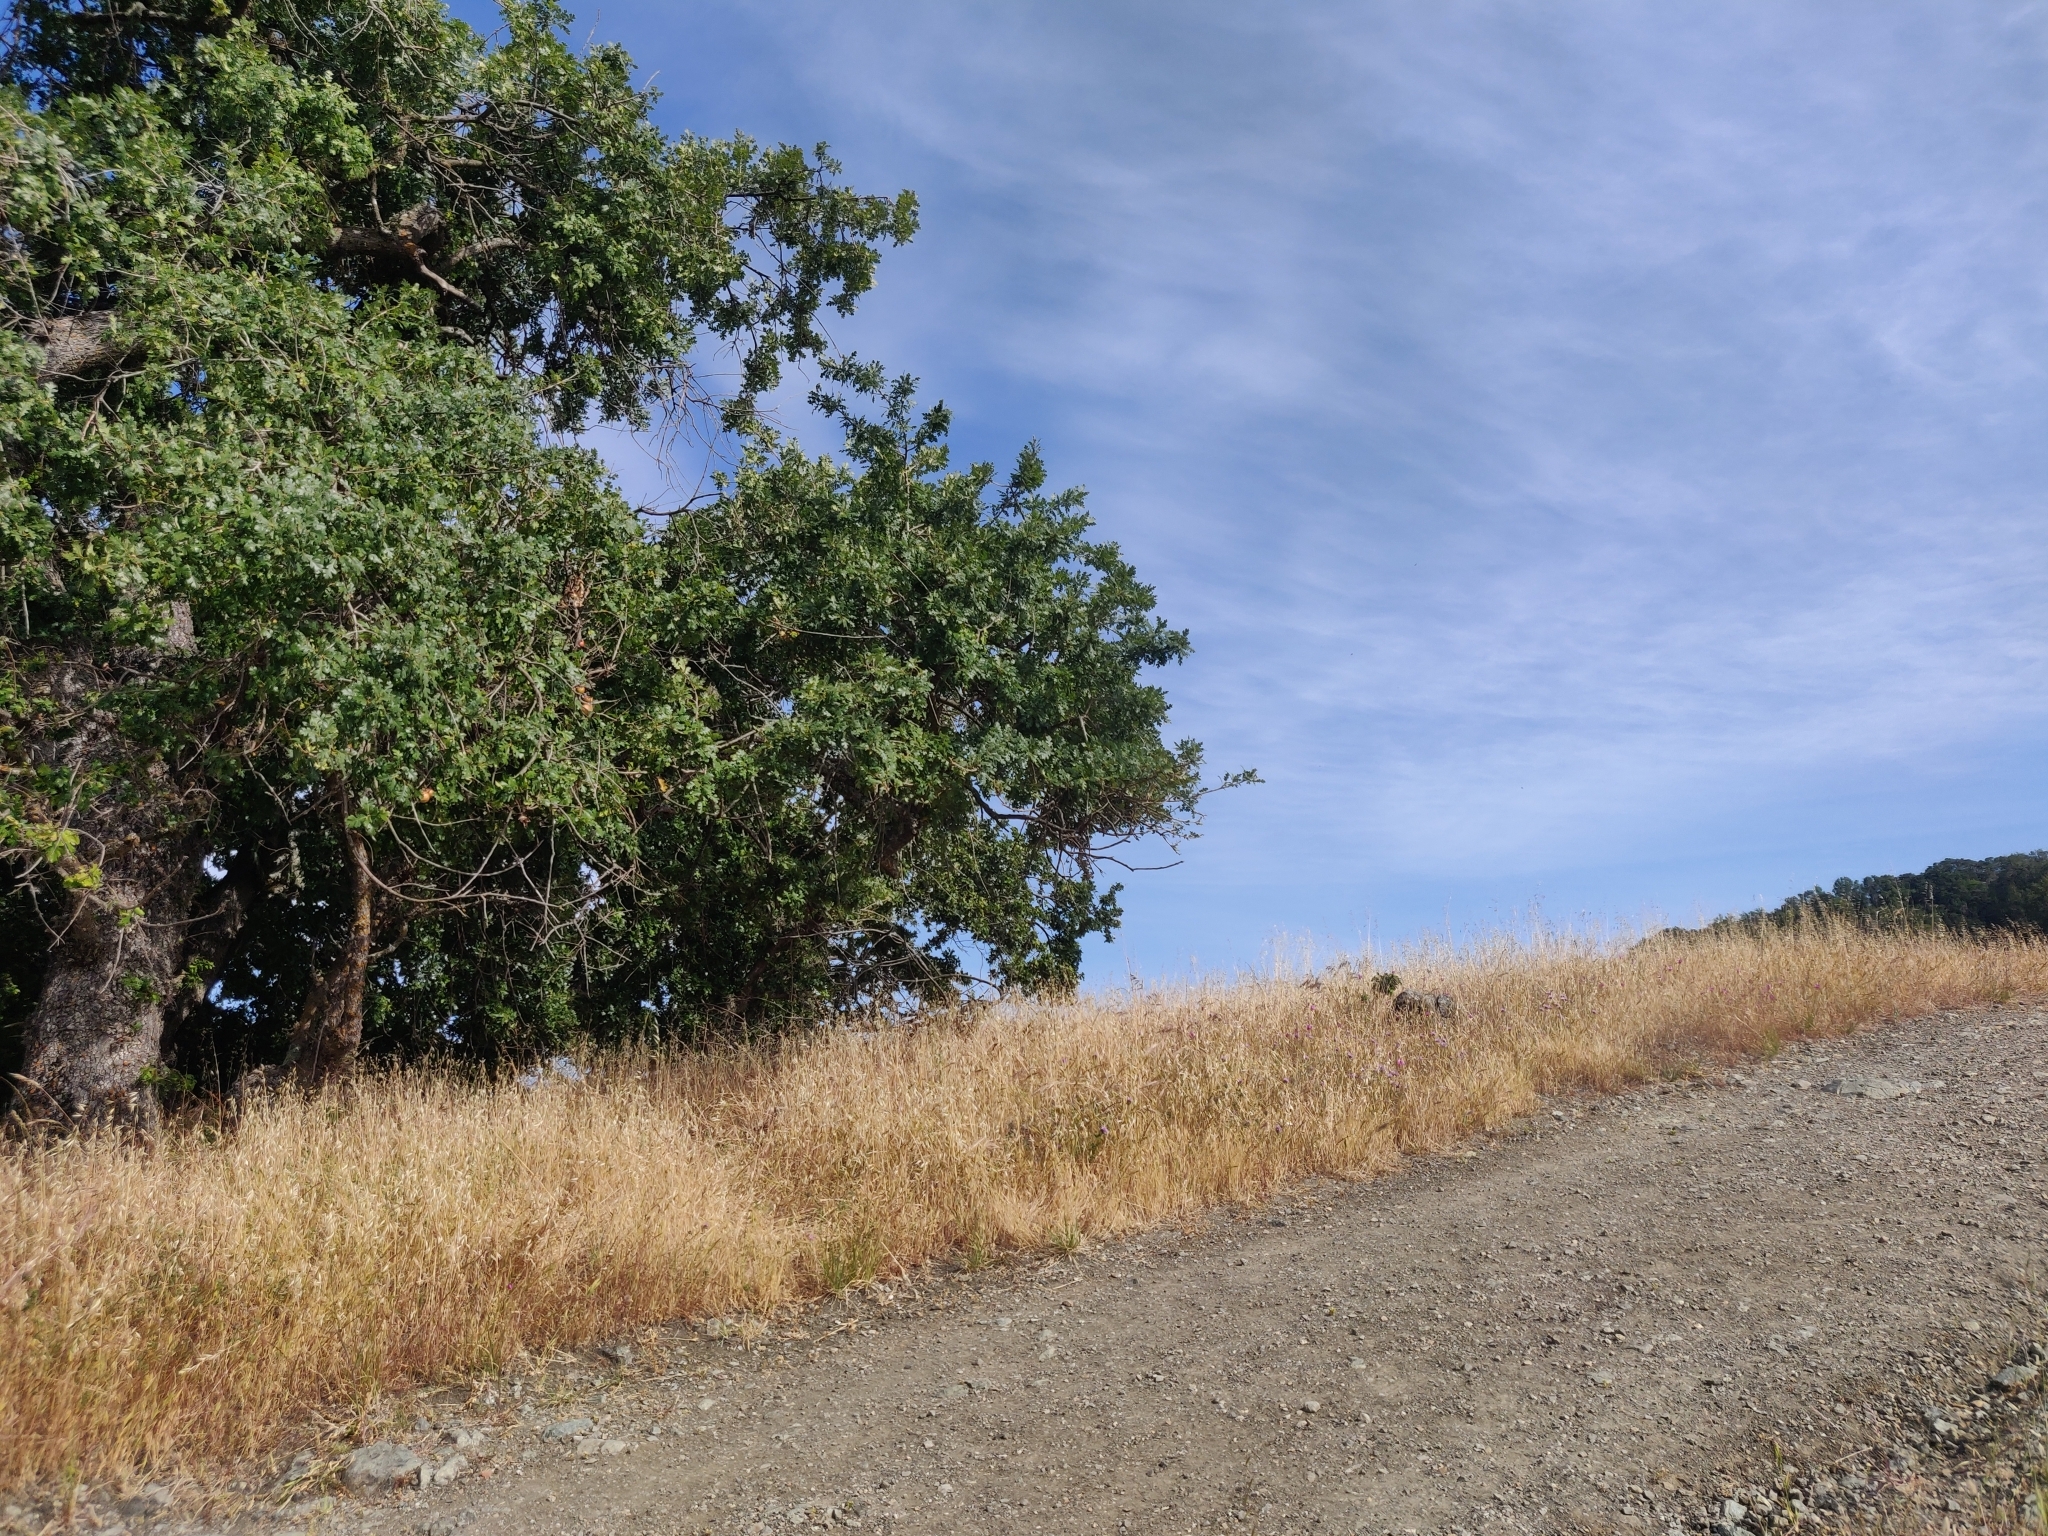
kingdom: Plantae
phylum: Tracheophyta
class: Magnoliopsida
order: Lamiales
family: Lamiaceae
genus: Monardella
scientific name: Monardella odoratissima
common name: Pacific monardella
